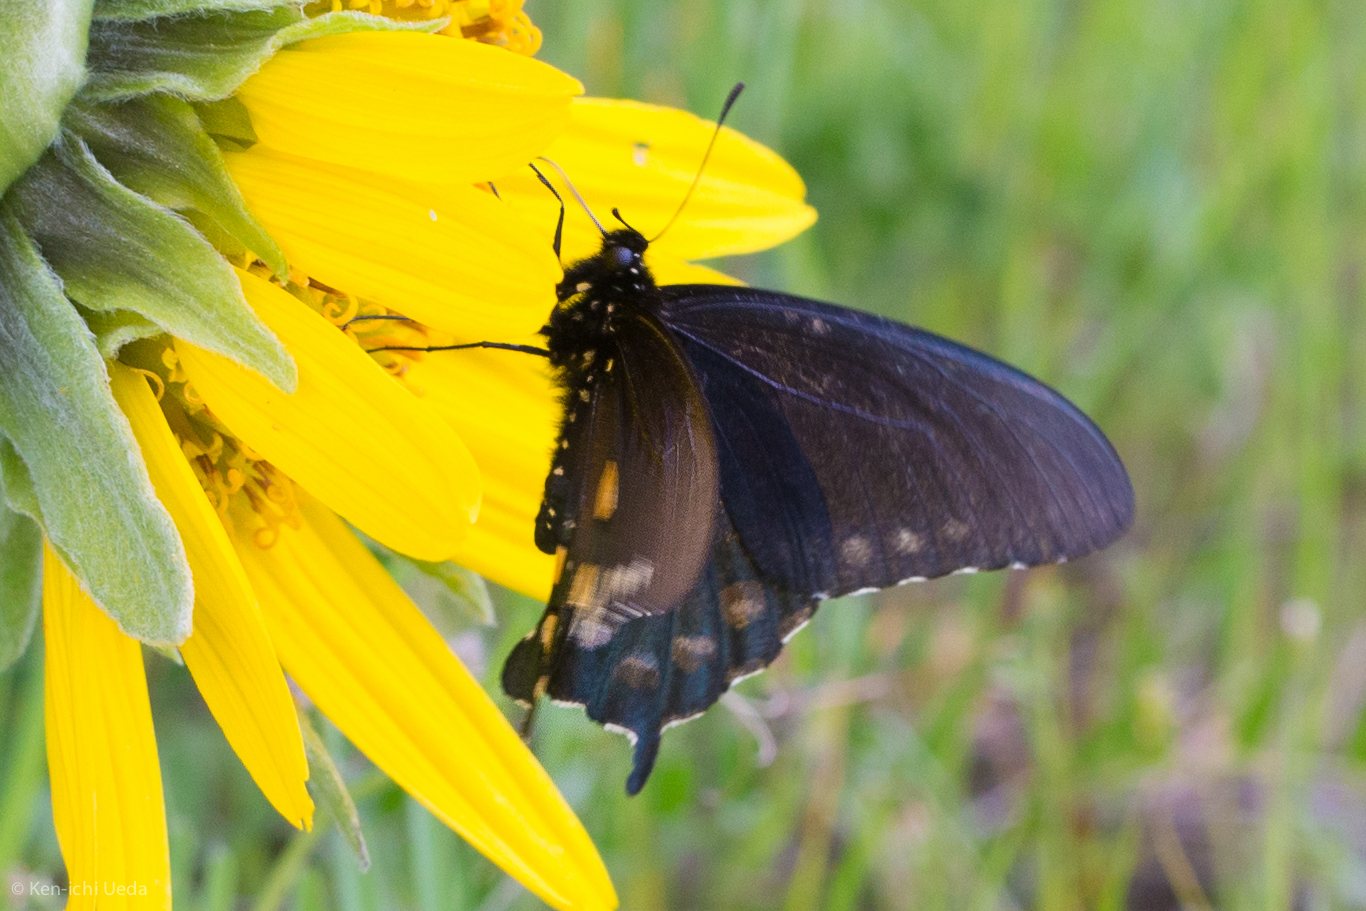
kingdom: Animalia
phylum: Arthropoda
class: Insecta
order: Lepidoptera
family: Papilionidae
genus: Battus
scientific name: Battus philenor
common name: Pipevine swallowtail
